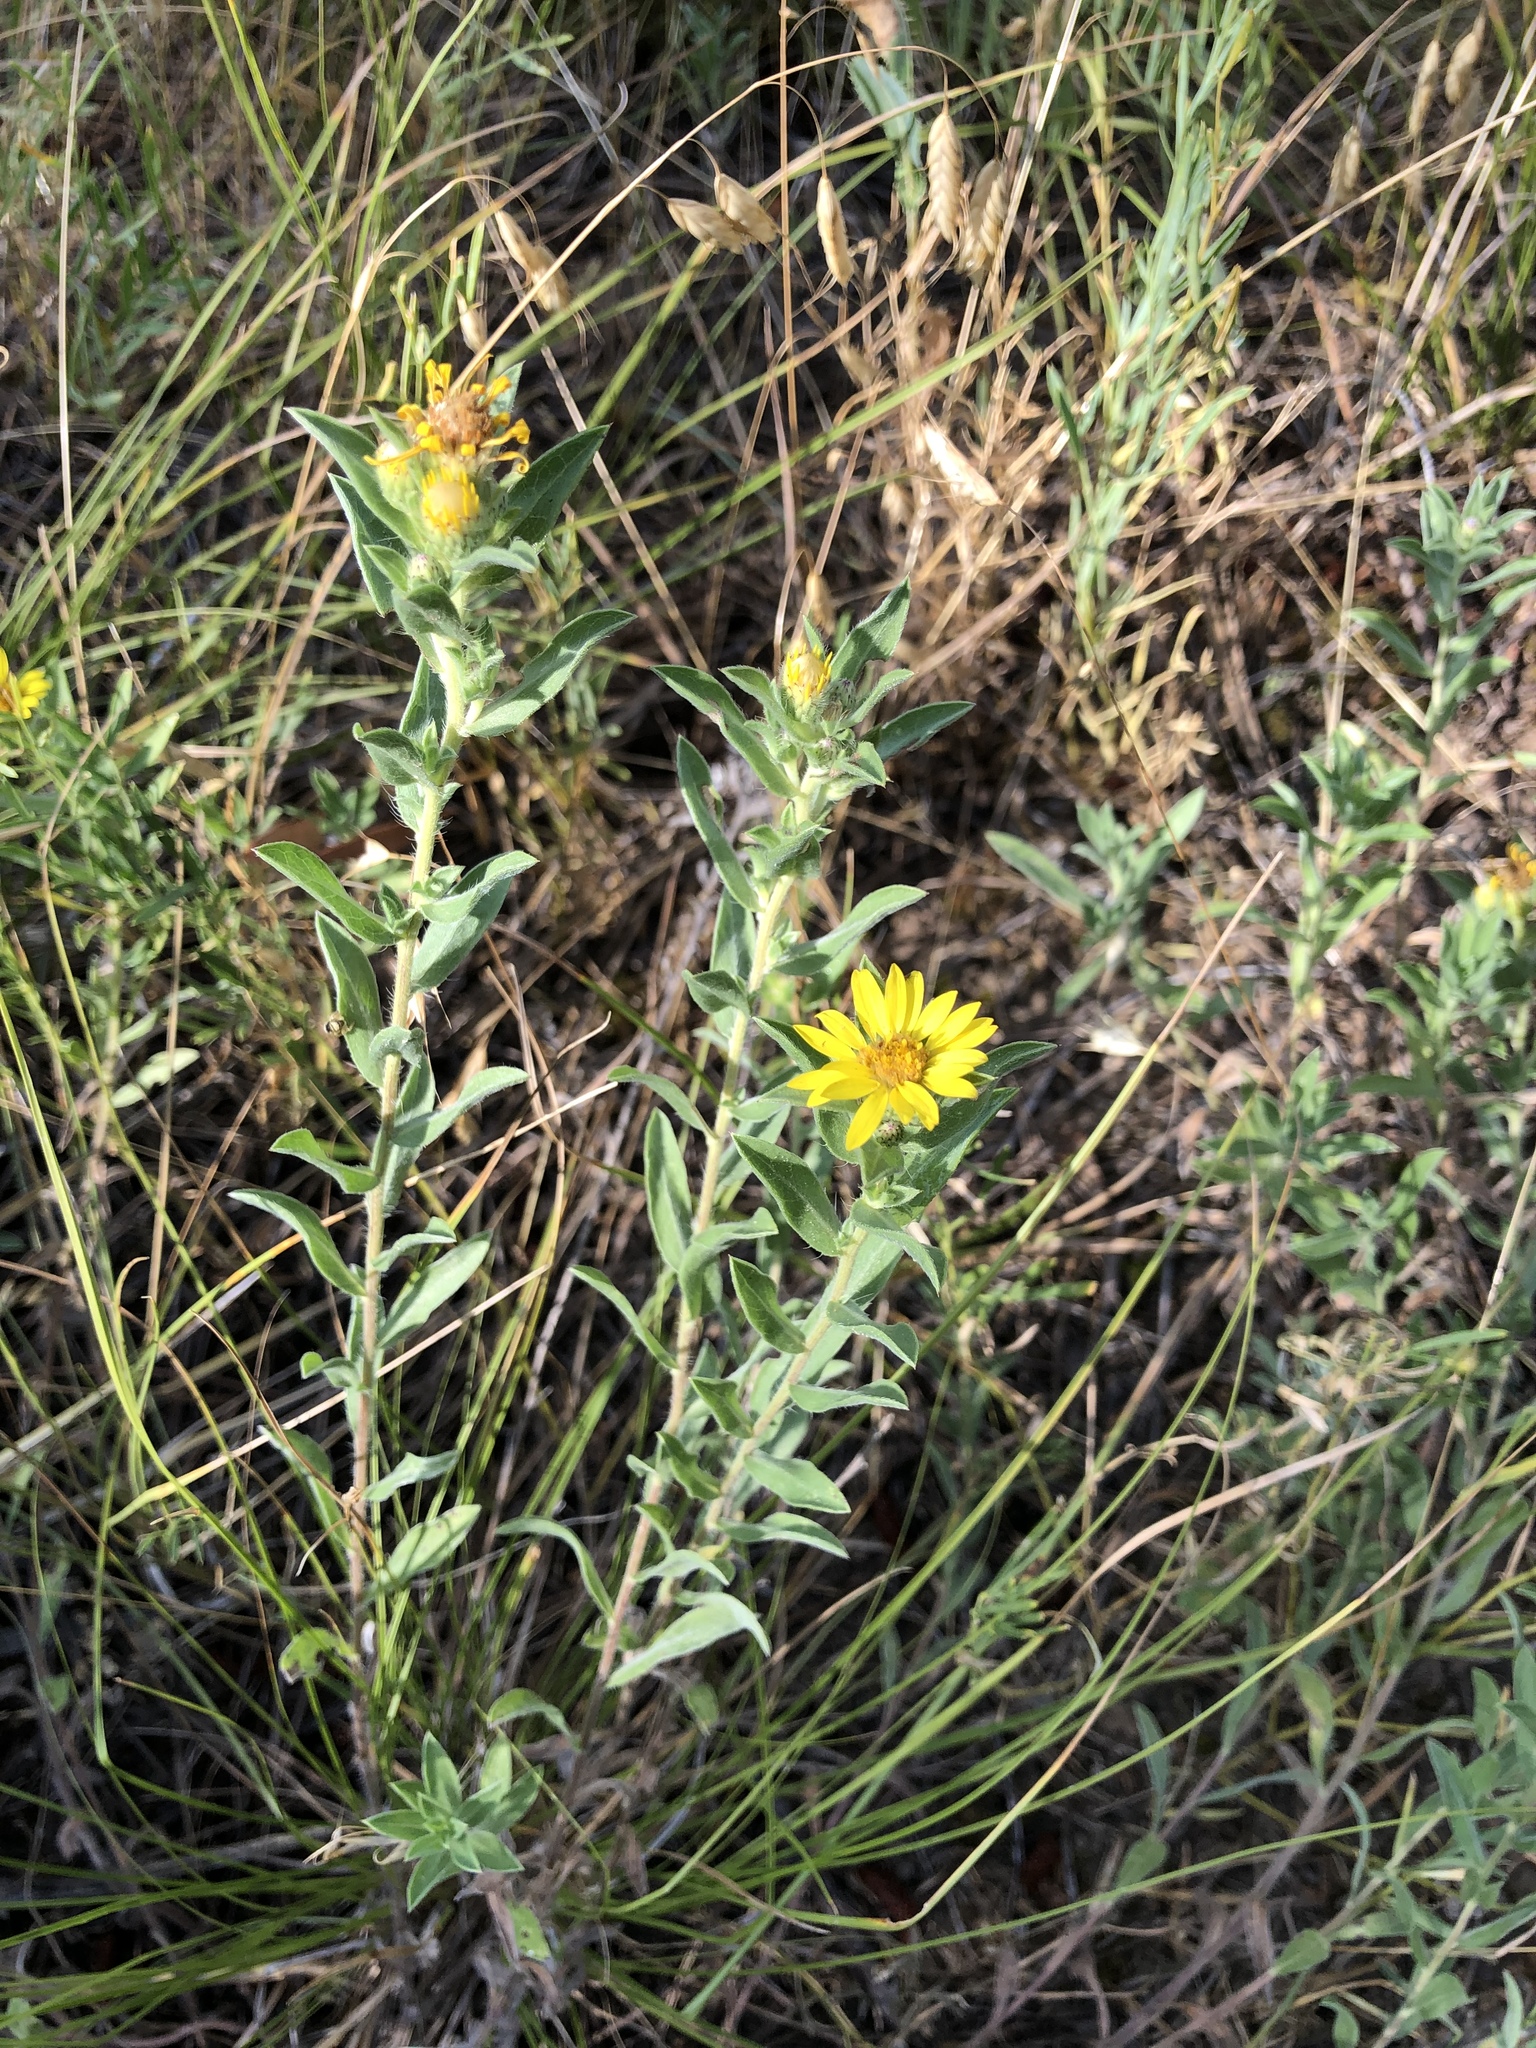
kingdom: Plantae
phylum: Tracheophyta
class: Magnoliopsida
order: Asterales
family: Asteraceae
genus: Heterotheca
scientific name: Heterotheca villosa
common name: Hairy false goldenaster
